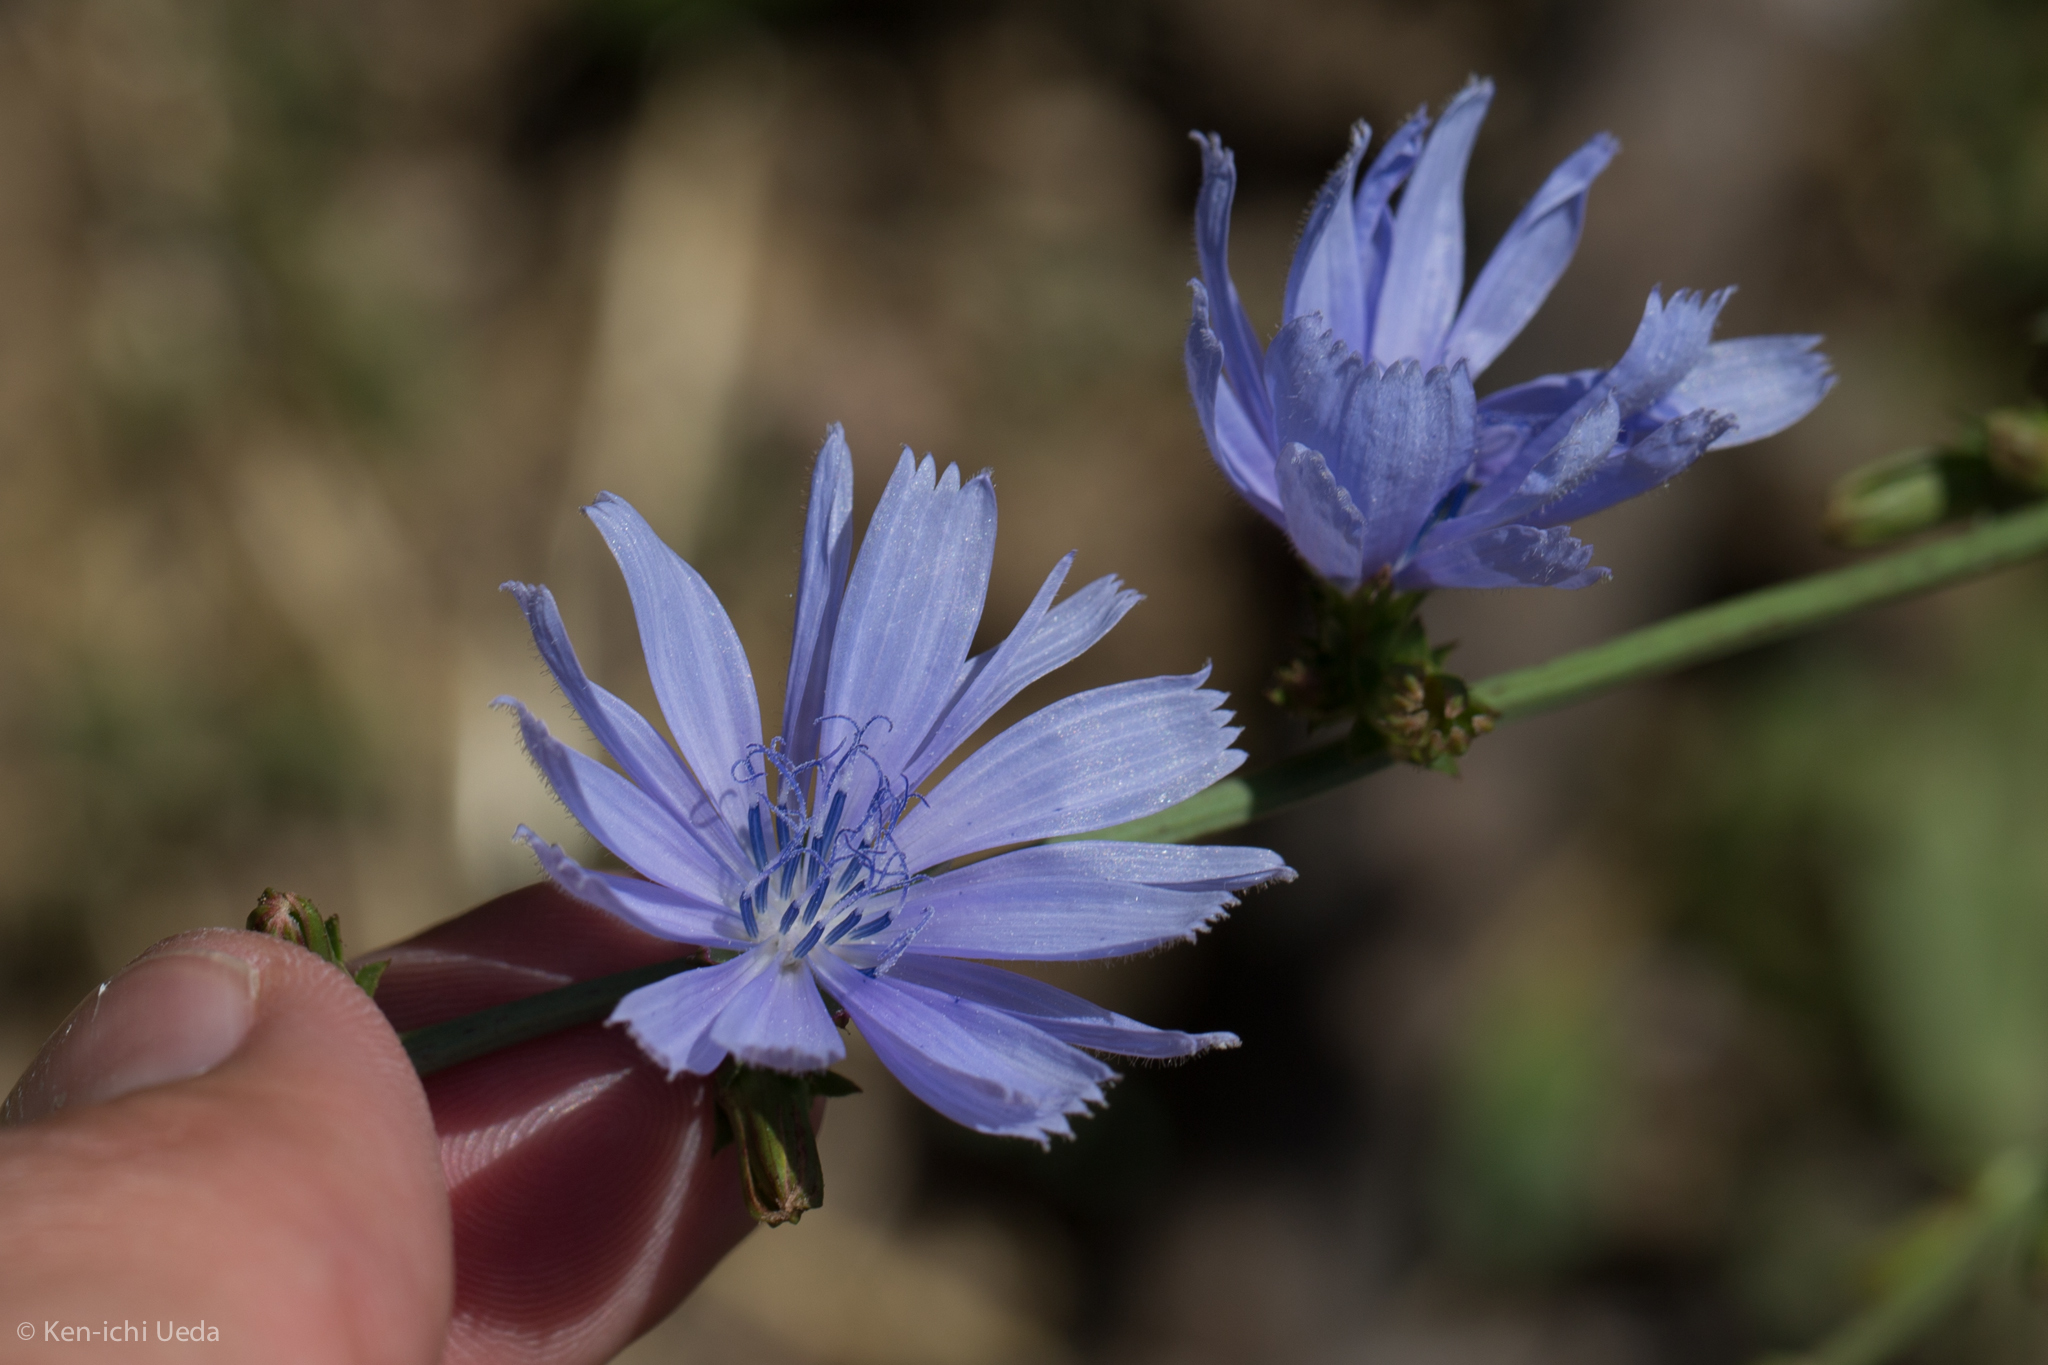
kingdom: Plantae
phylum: Tracheophyta
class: Magnoliopsida
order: Asterales
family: Asteraceae
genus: Cichorium
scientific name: Cichorium intybus
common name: Chicory
